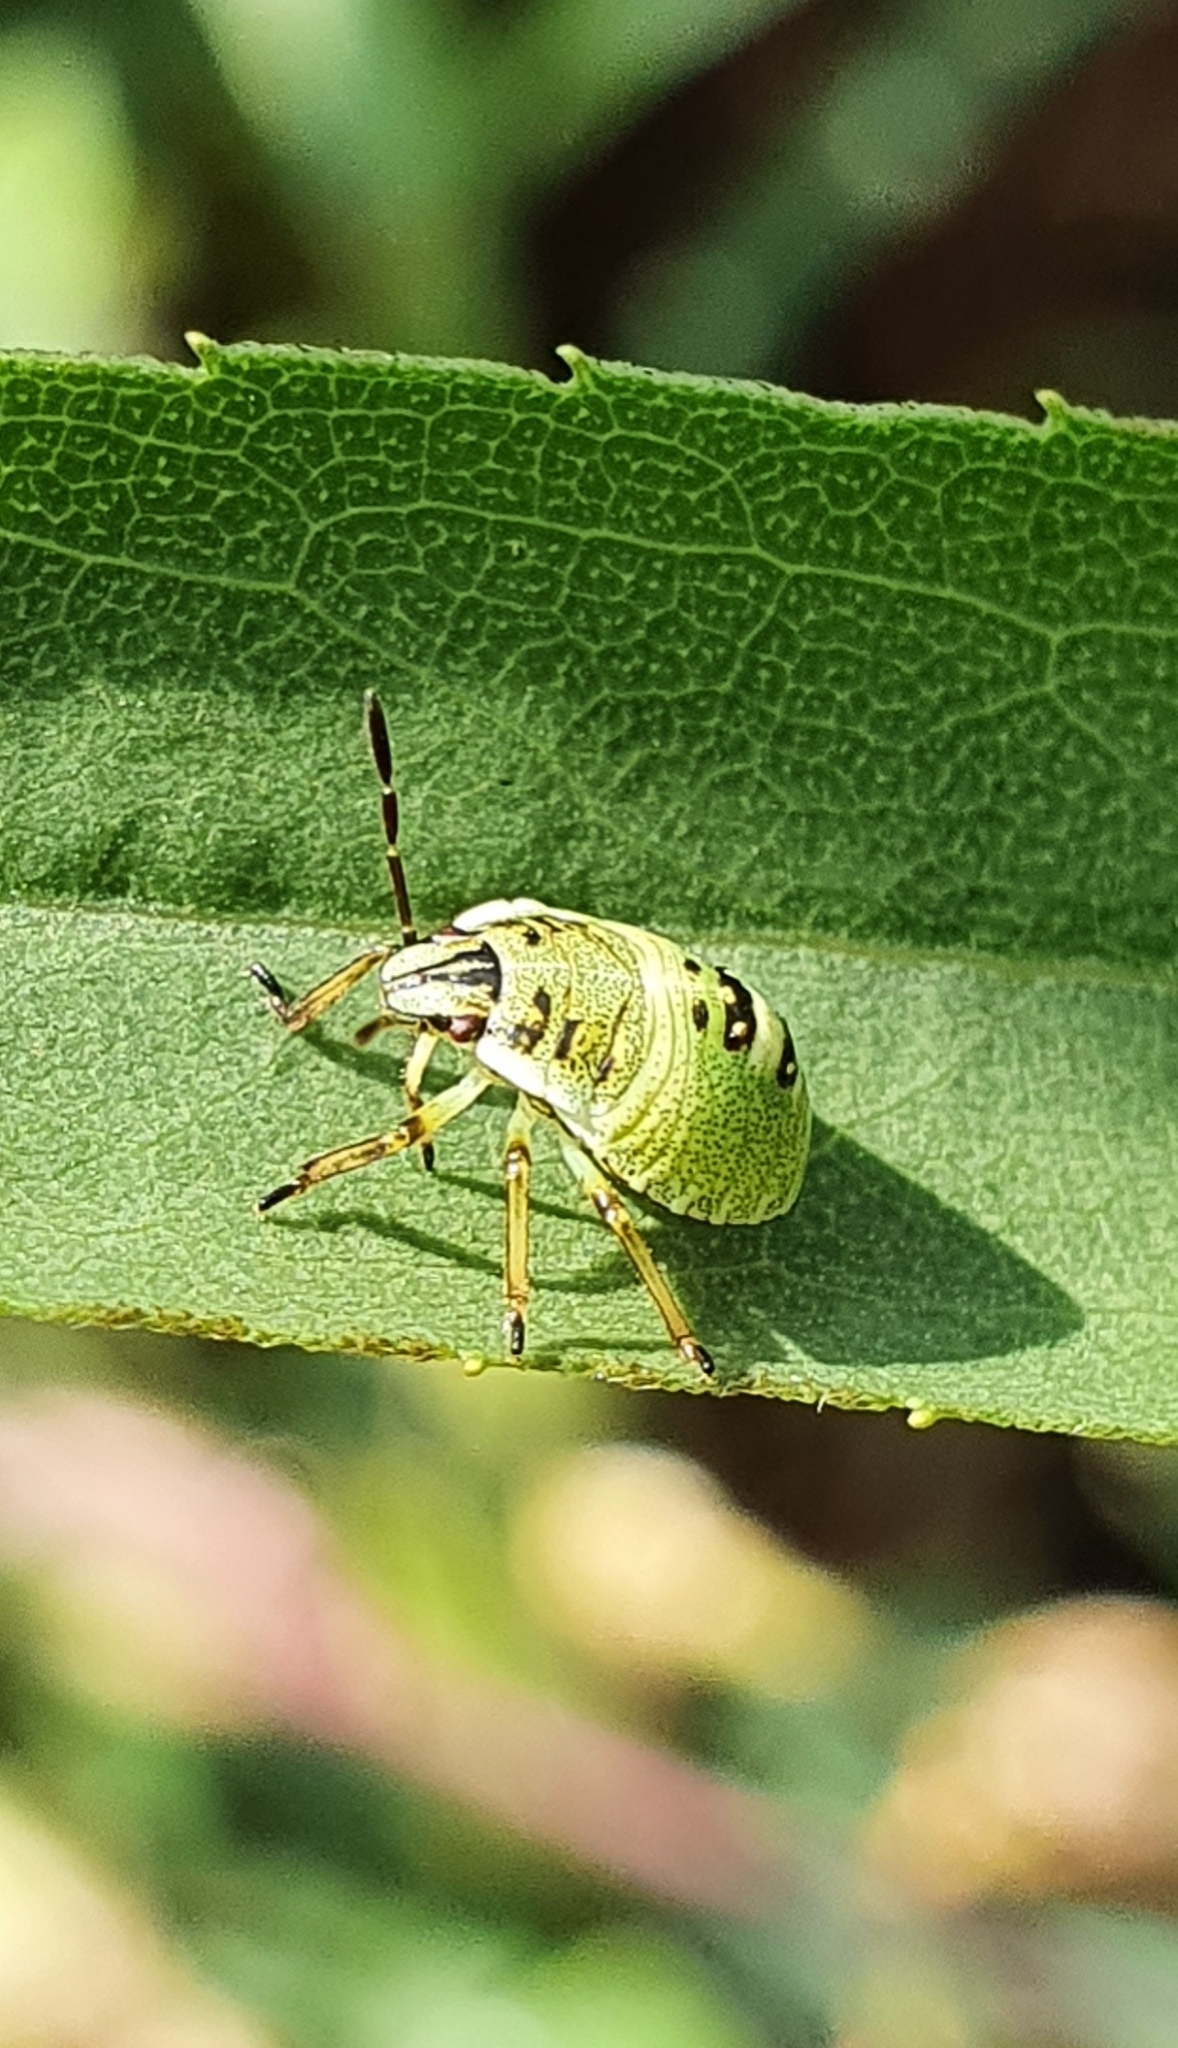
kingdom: Animalia
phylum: Arthropoda
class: Insecta
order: Hemiptera
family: Pentatomidae
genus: Palomena
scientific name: Palomena prasina
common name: Green shieldbug
